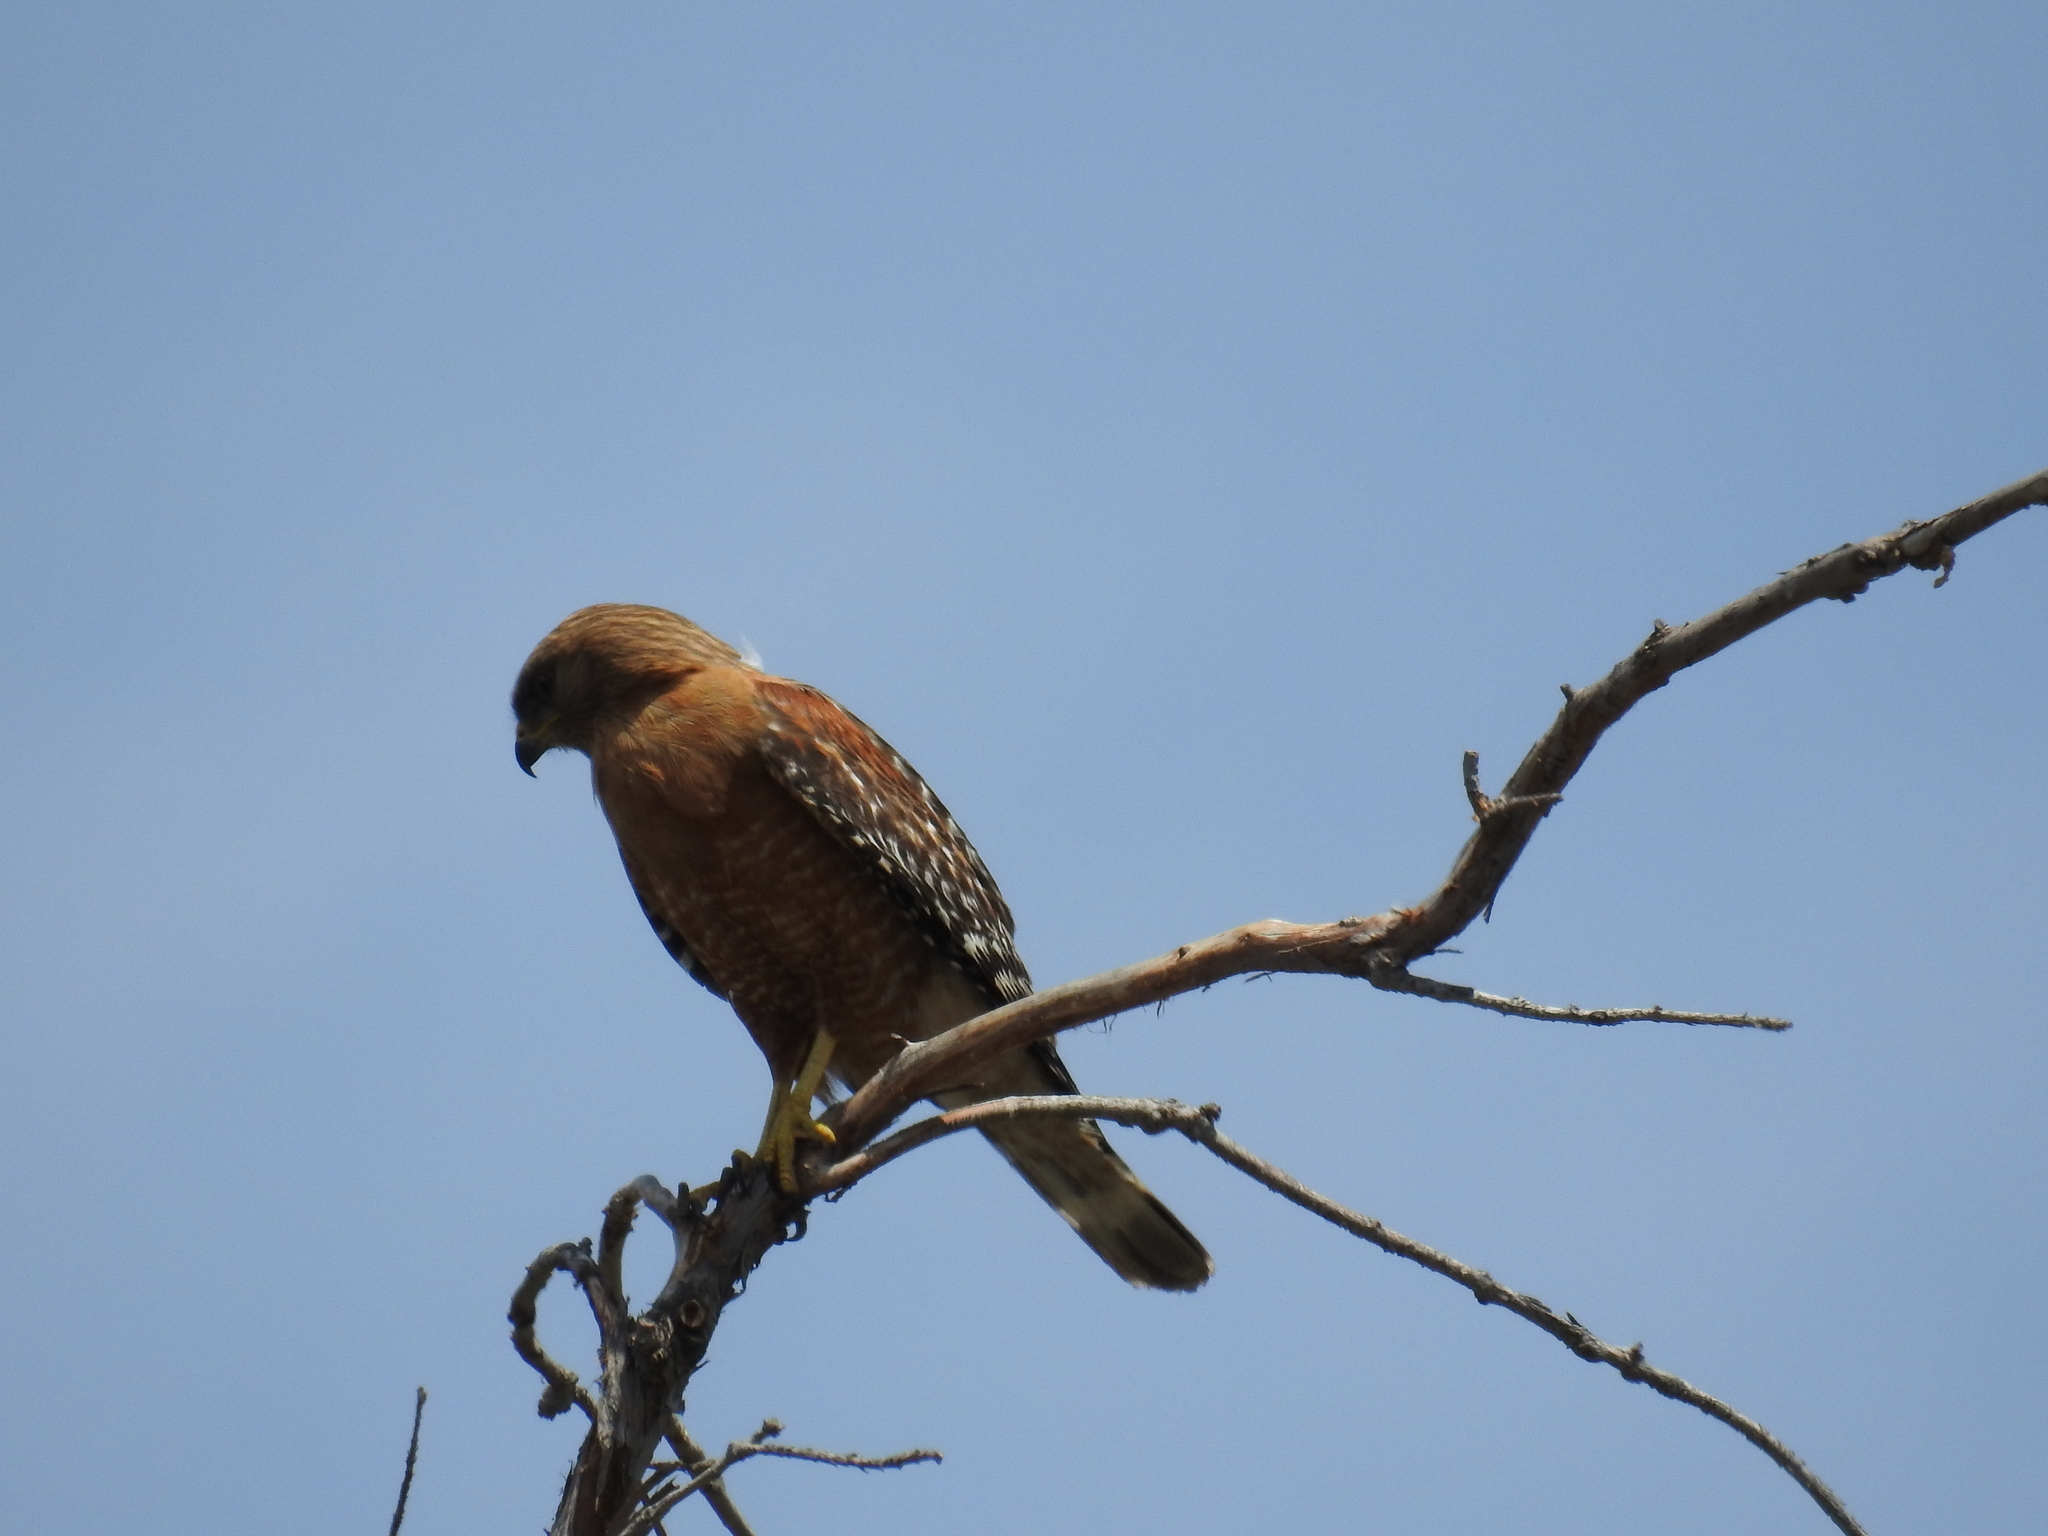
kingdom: Animalia
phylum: Chordata
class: Aves
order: Accipitriformes
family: Accipitridae
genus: Buteo
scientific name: Buteo lineatus
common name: Red-shouldered hawk
